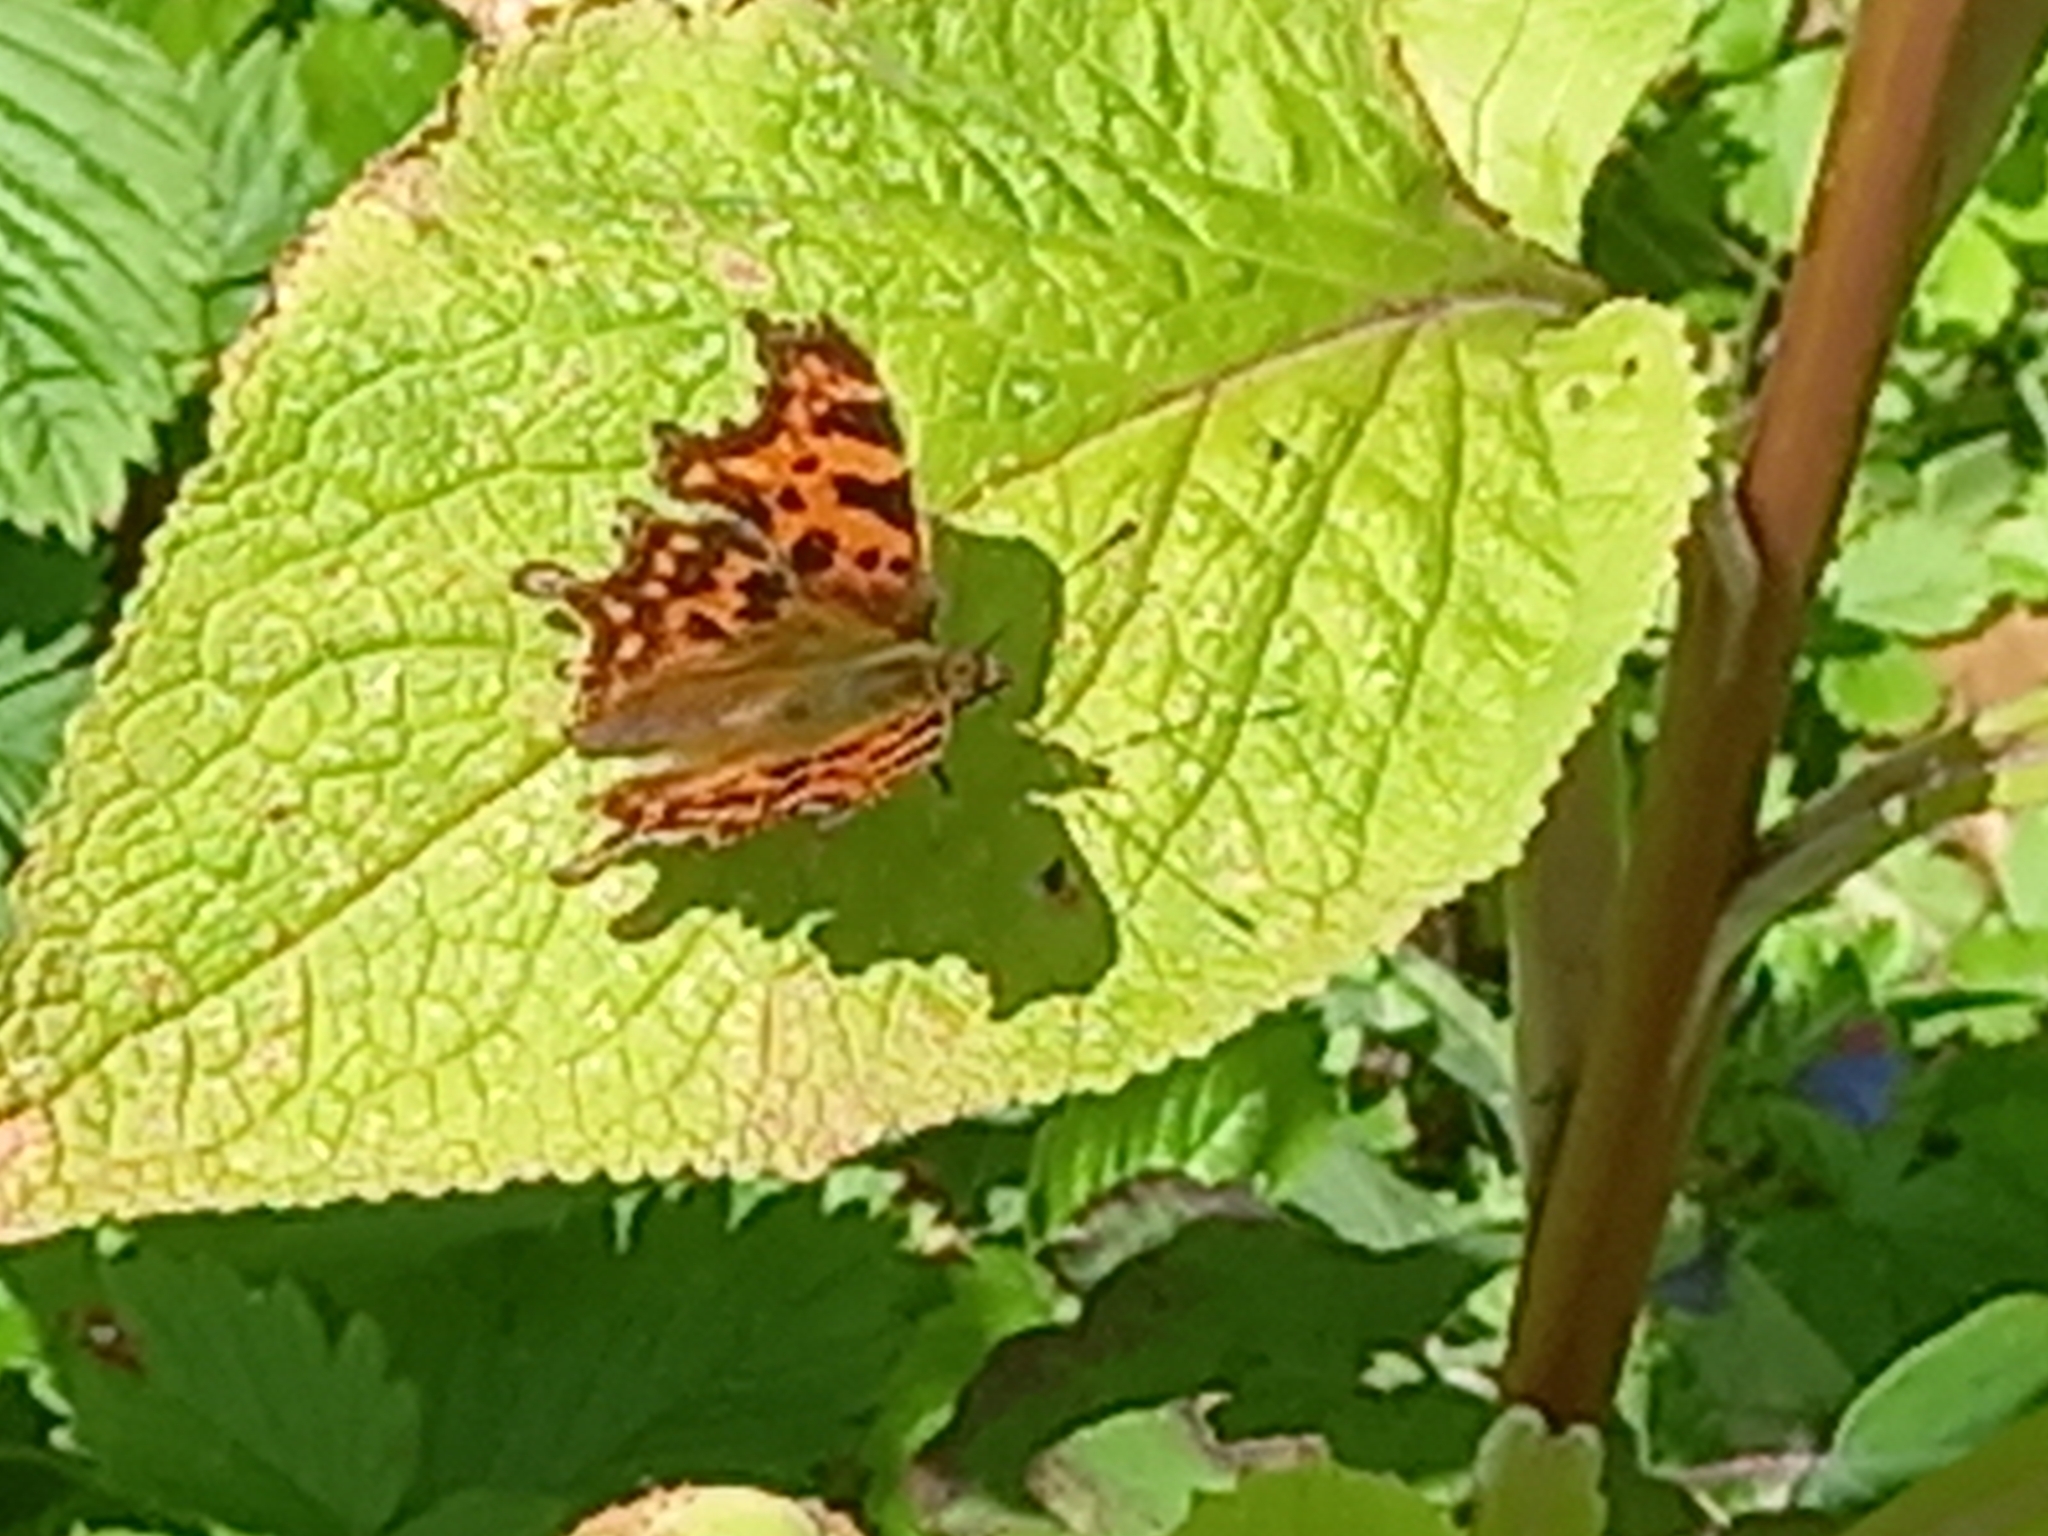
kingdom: Animalia
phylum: Arthropoda
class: Insecta
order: Lepidoptera
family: Nymphalidae
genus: Polygonia
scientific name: Polygonia c-album
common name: Comma
